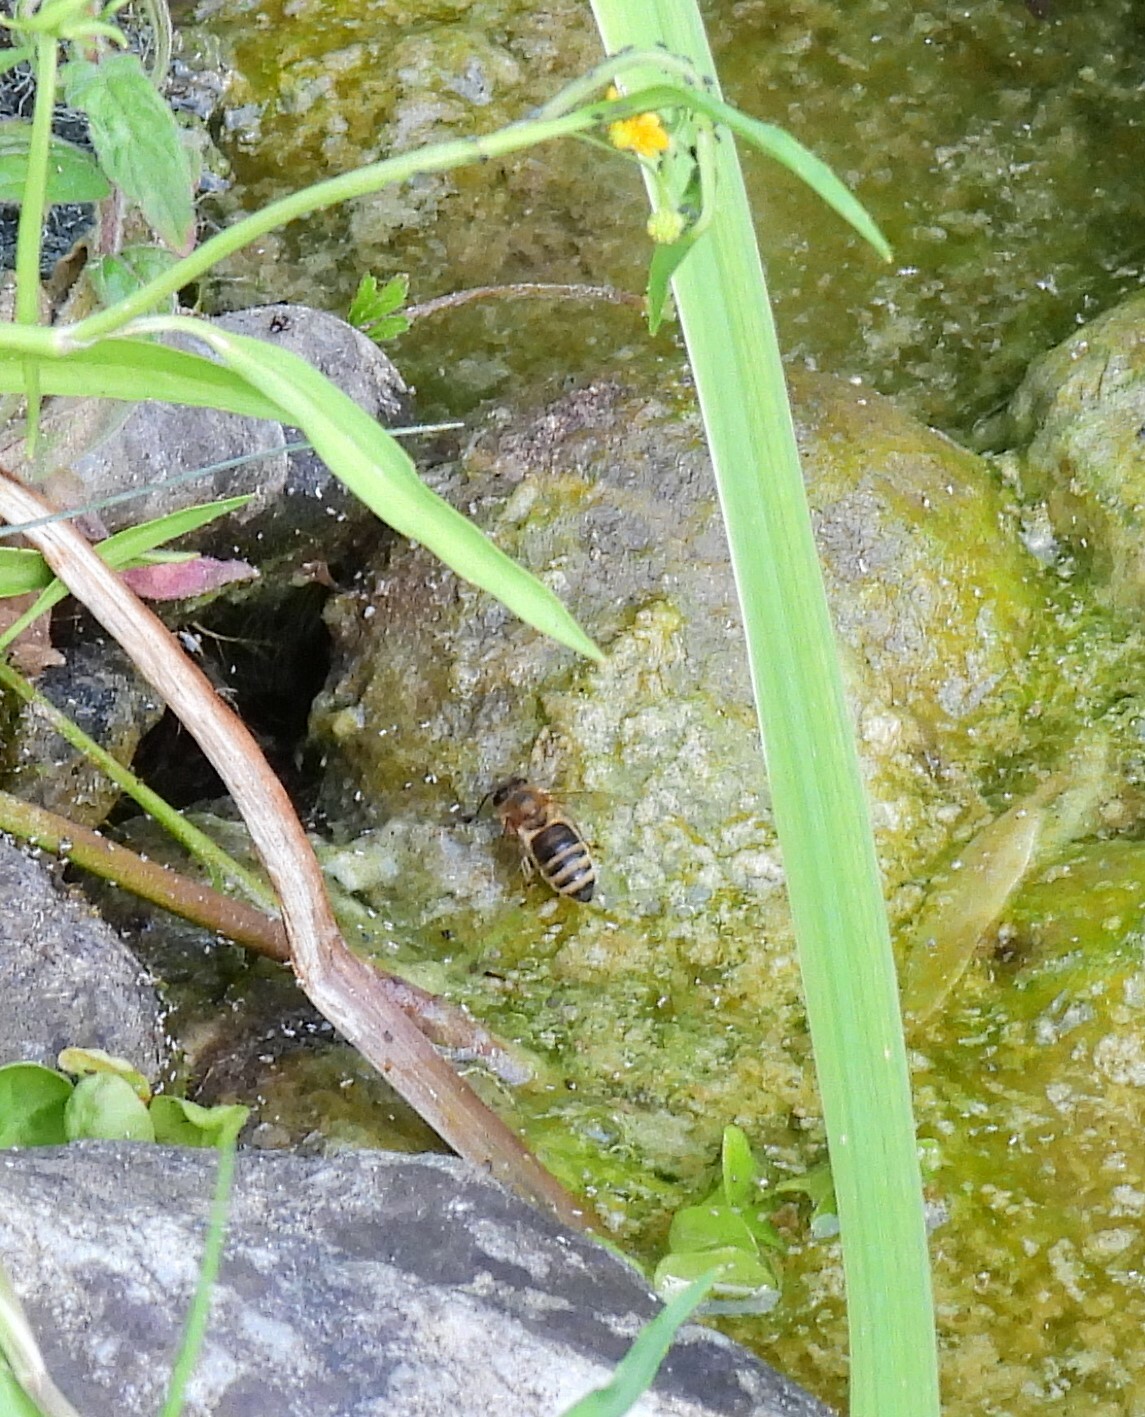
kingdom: Animalia
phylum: Arthropoda
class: Insecta
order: Hymenoptera
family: Apidae
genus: Apis
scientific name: Apis mellifera
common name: Honey bee
